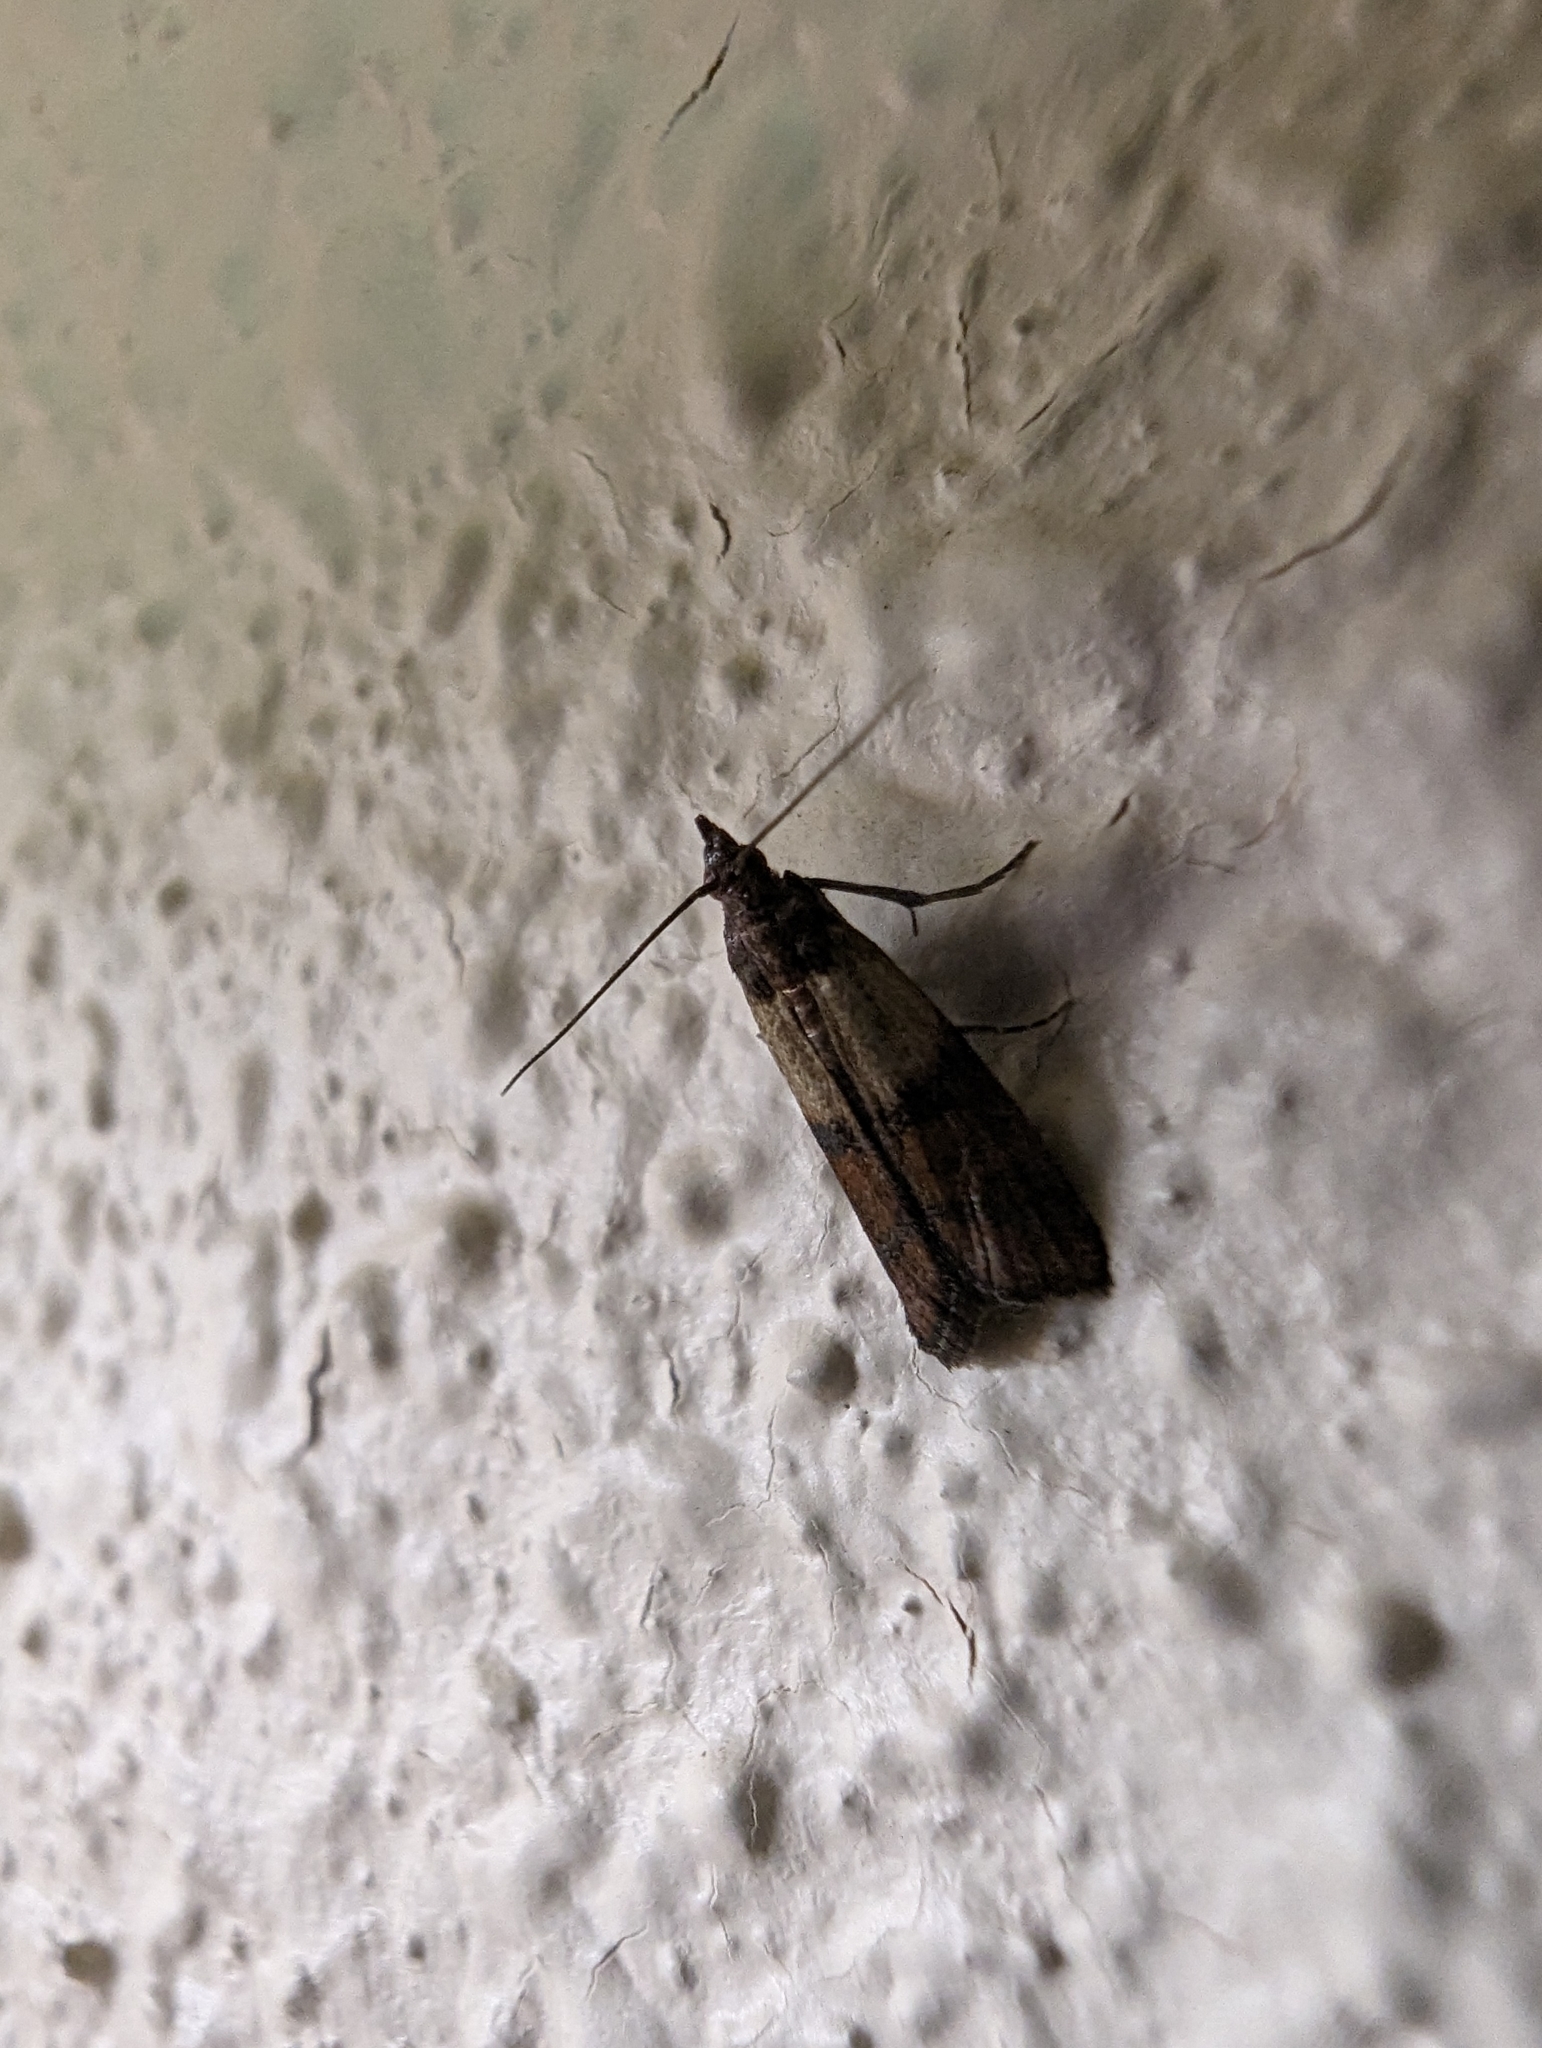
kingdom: Animalia
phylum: Arthropoda
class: Insecta
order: Lepidoptera
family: Pyralidae
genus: Plodia
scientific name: Plodia interpunctella
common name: Indian meal moth
